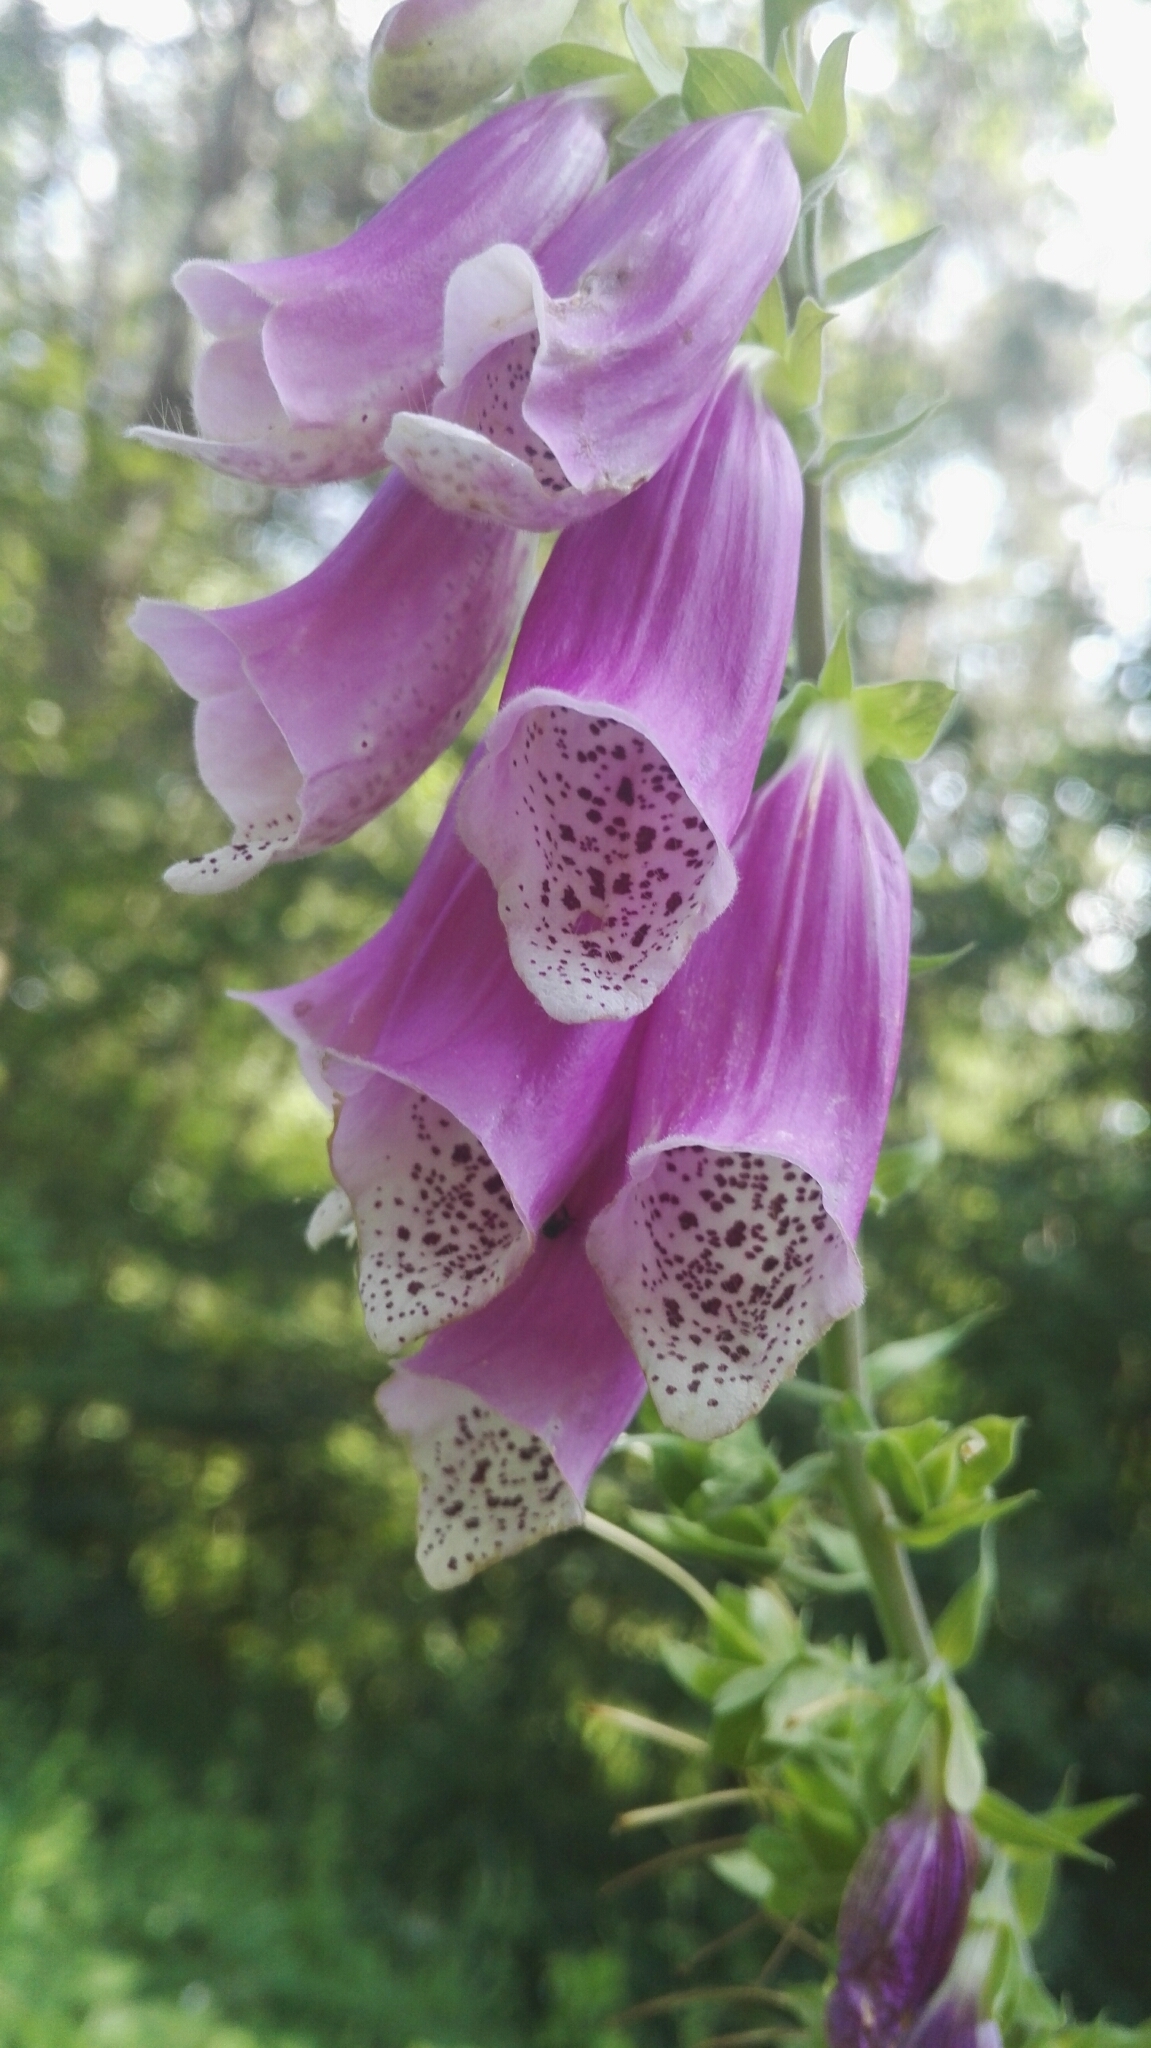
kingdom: Plantae
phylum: Tracheophyta
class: Magnoliopsida
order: Lamiales
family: Plantaginaceae
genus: Digitalis
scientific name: Digitalis purpurea
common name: Foxglove
